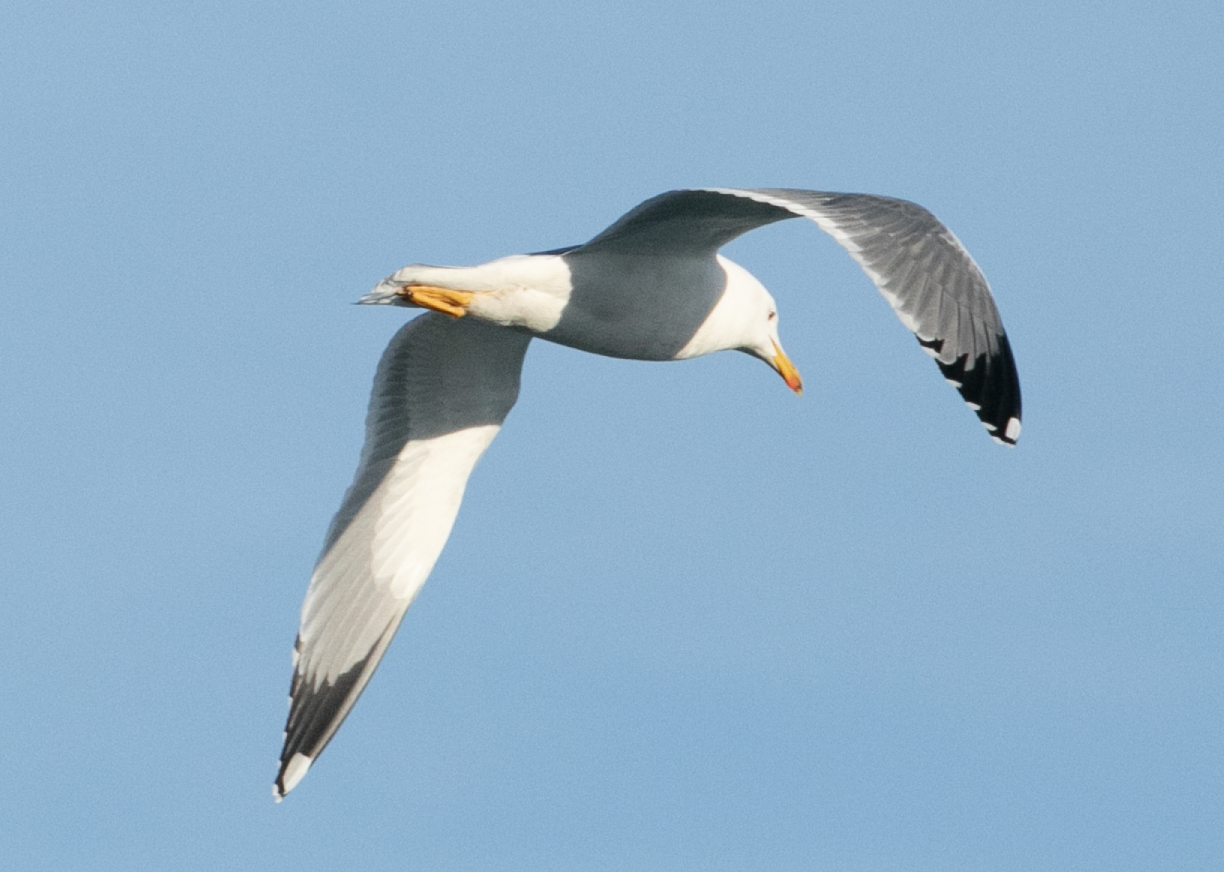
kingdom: Animalia
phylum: Chordata
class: Aves
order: Charadriiformes
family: Laridae
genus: Larus
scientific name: Larus michahellis
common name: Yellow-legged gull
